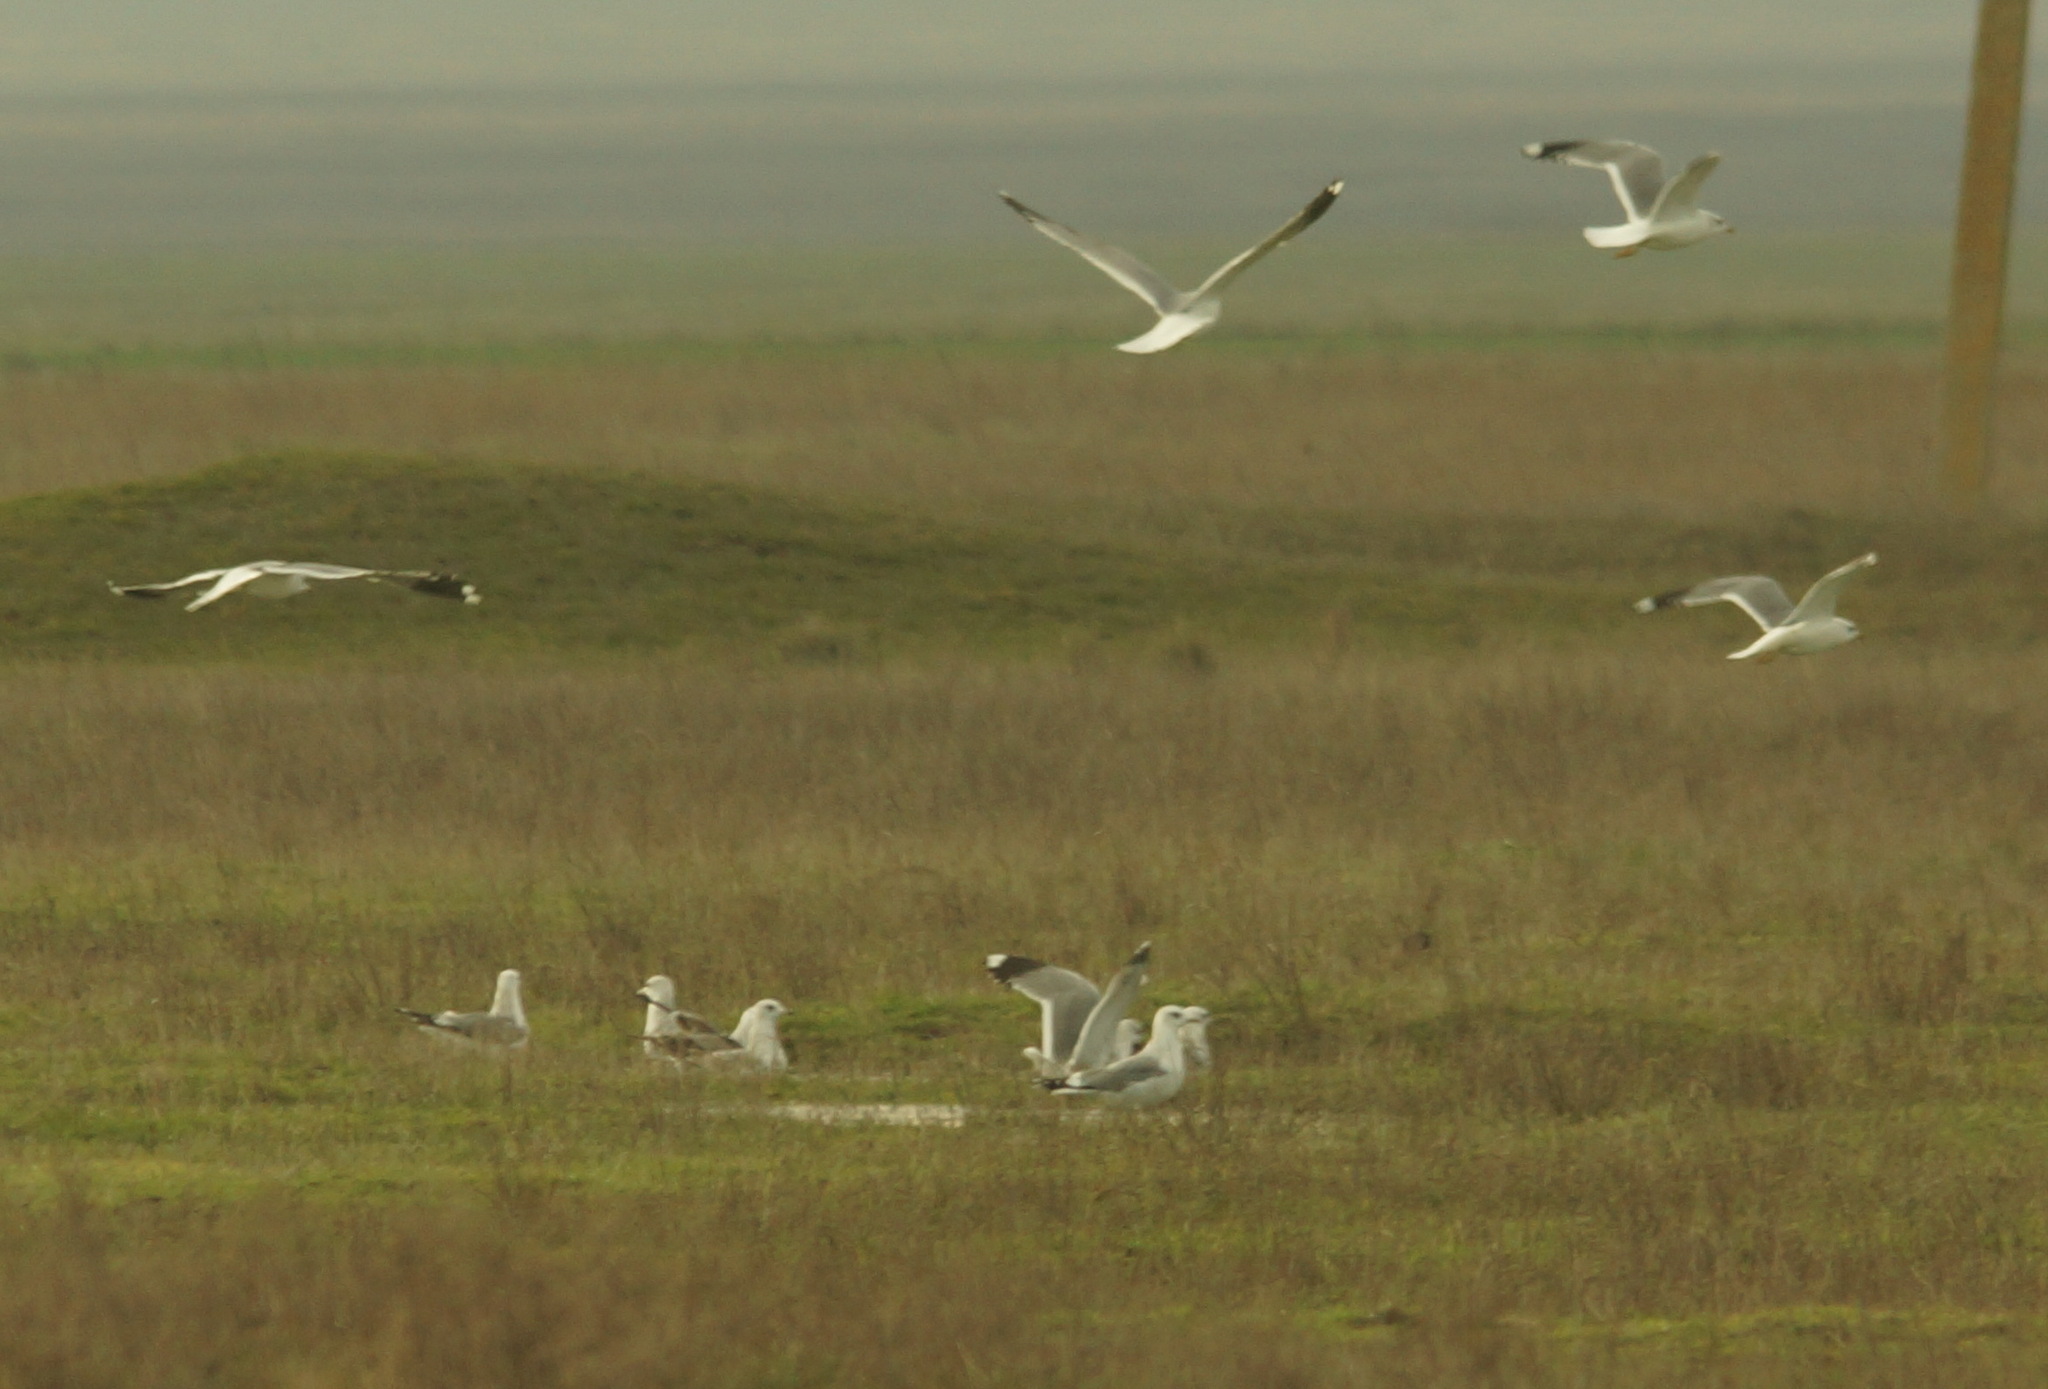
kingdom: Animalia
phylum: Chordata
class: Aves
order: Charadriiformes
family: Laridae
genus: Larus
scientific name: Larus canus
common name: Mew gull
